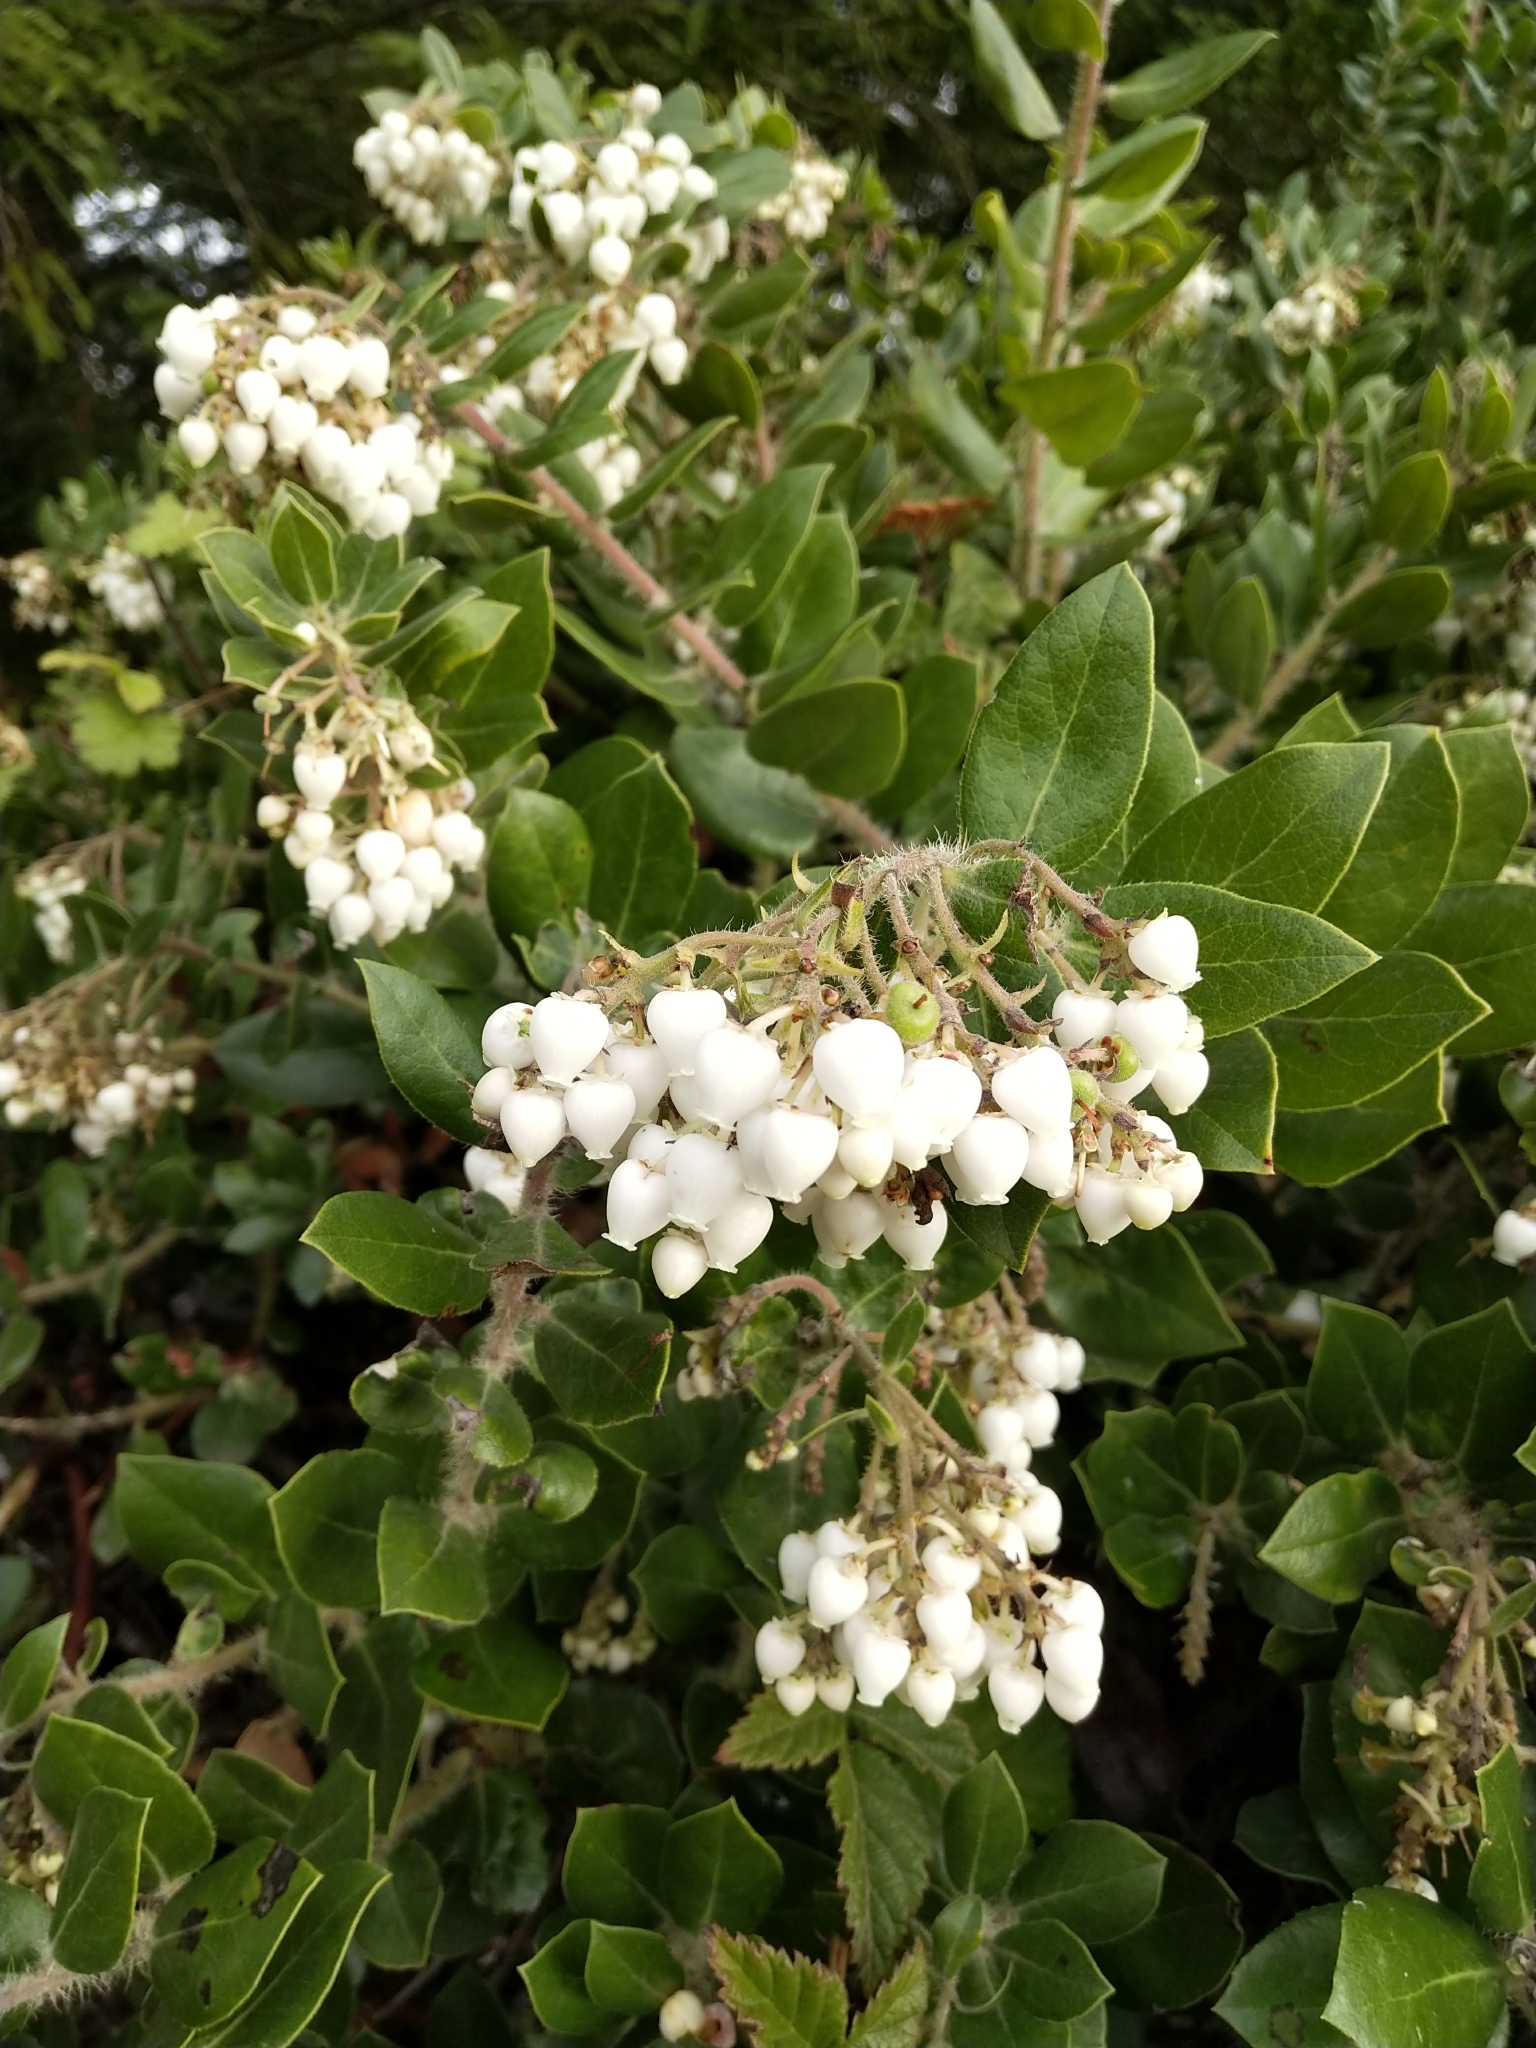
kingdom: Plantae
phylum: Tracheophyta
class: Magnoliopsida
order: Ericales
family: Ericaceae
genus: Arctostaphylos
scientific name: Arctostaphylos crustacea
